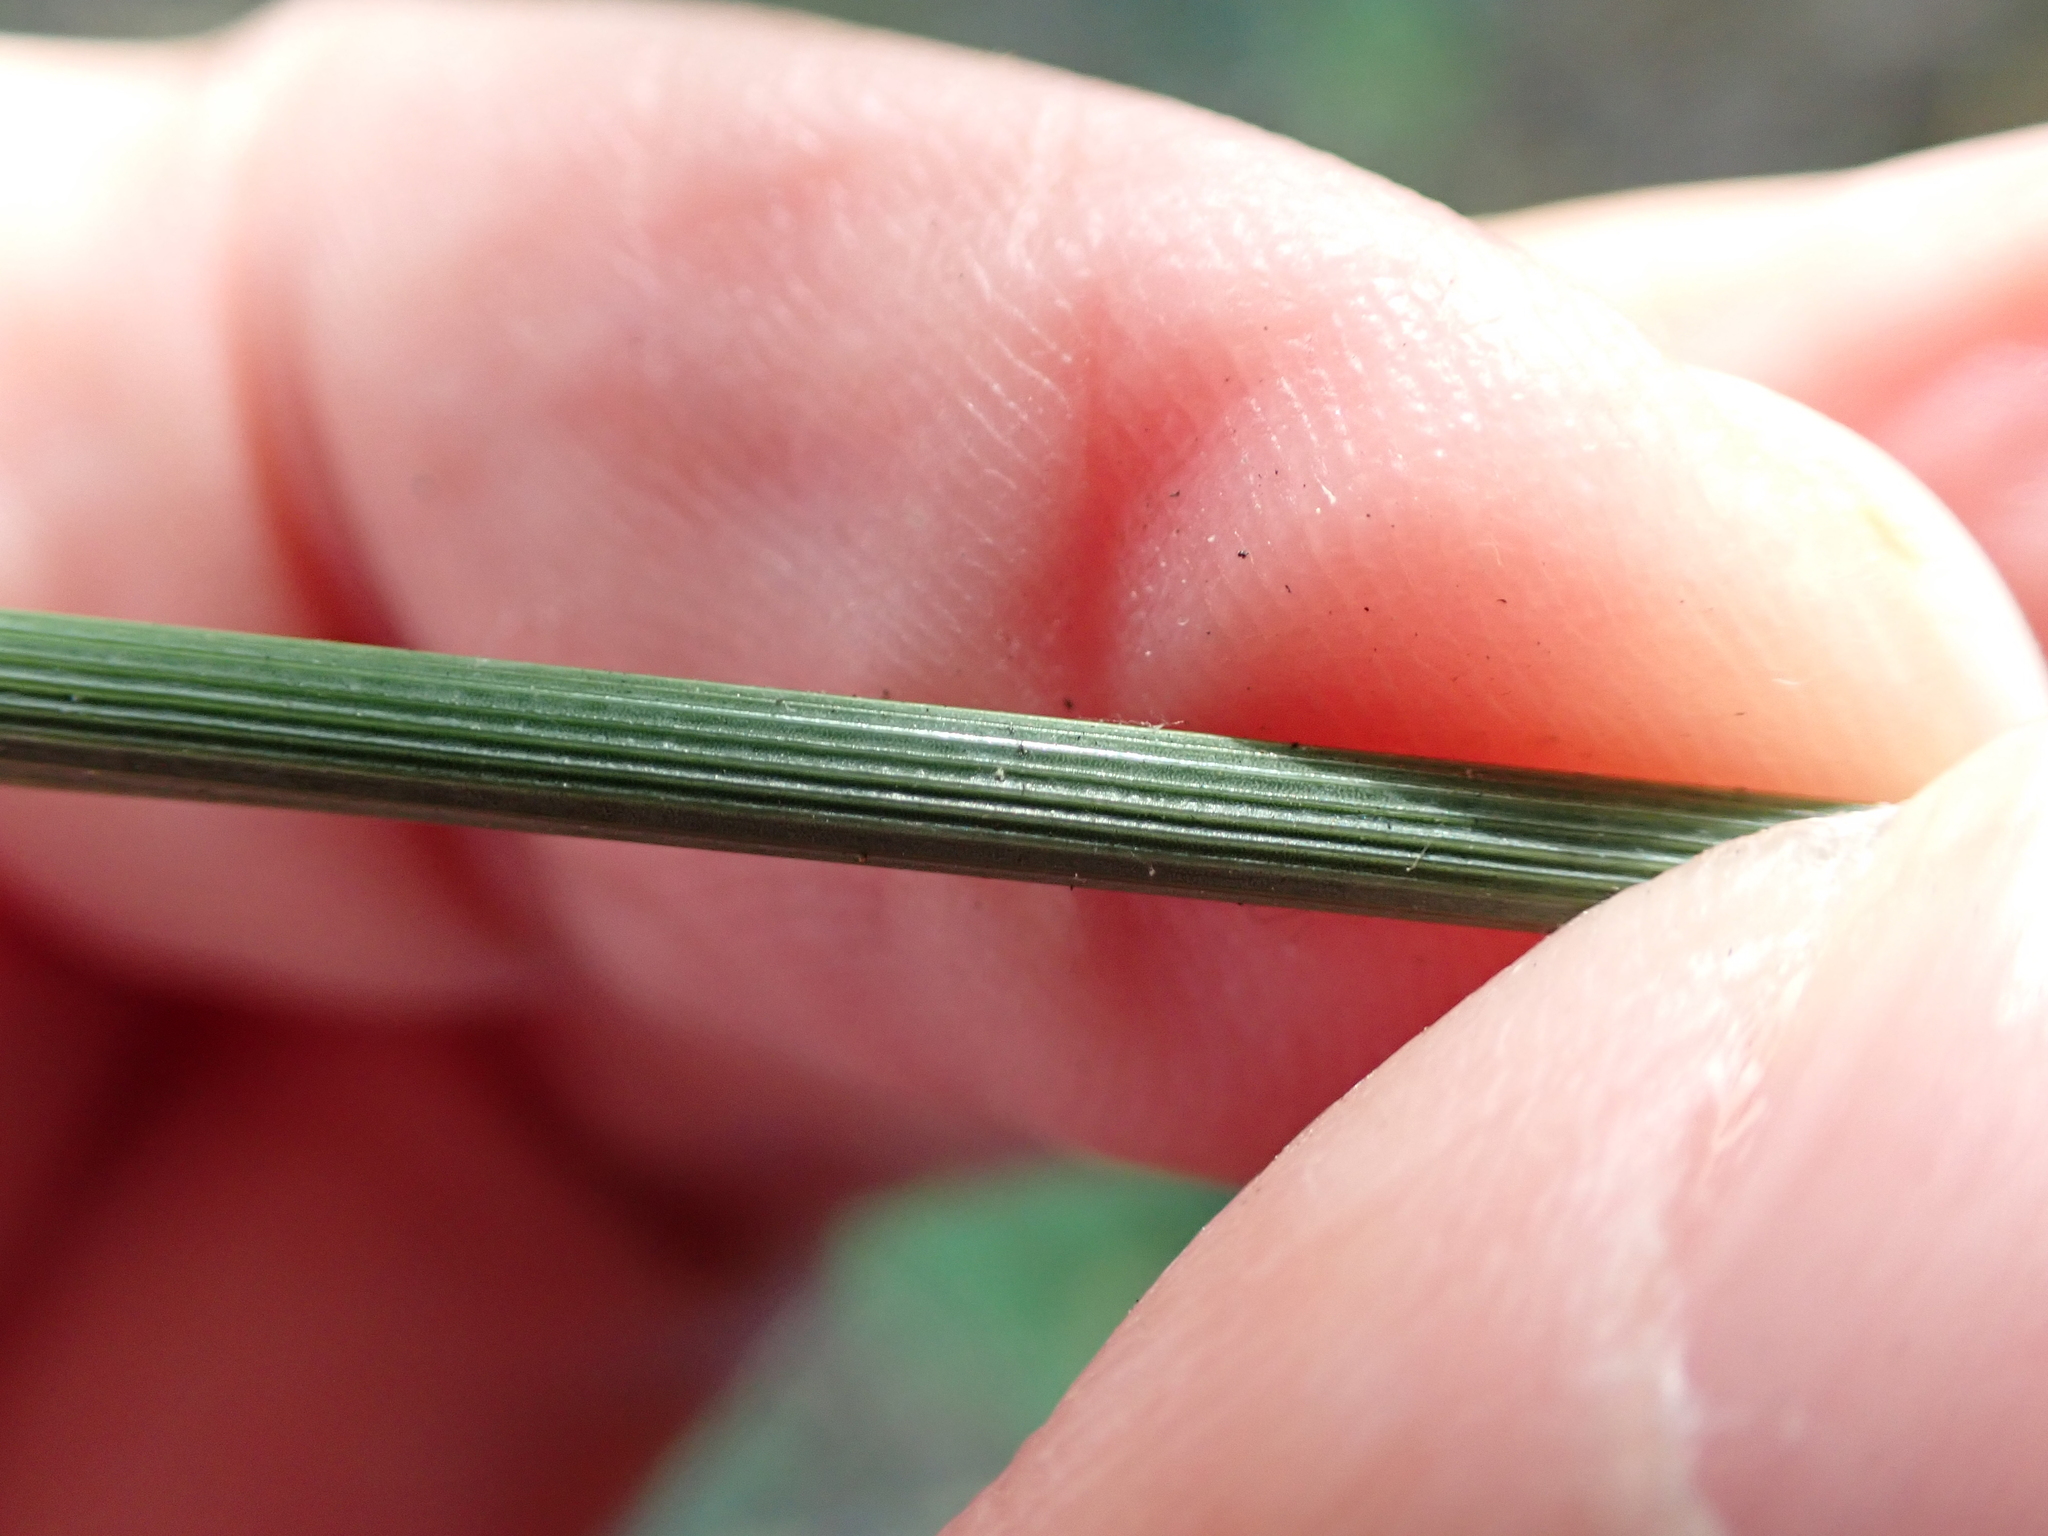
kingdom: Plantae
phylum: Tracheophyta
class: Liliopsida
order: Poales
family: Juncaceae
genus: Juncus
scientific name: Juncus inflexus
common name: Hard rush
